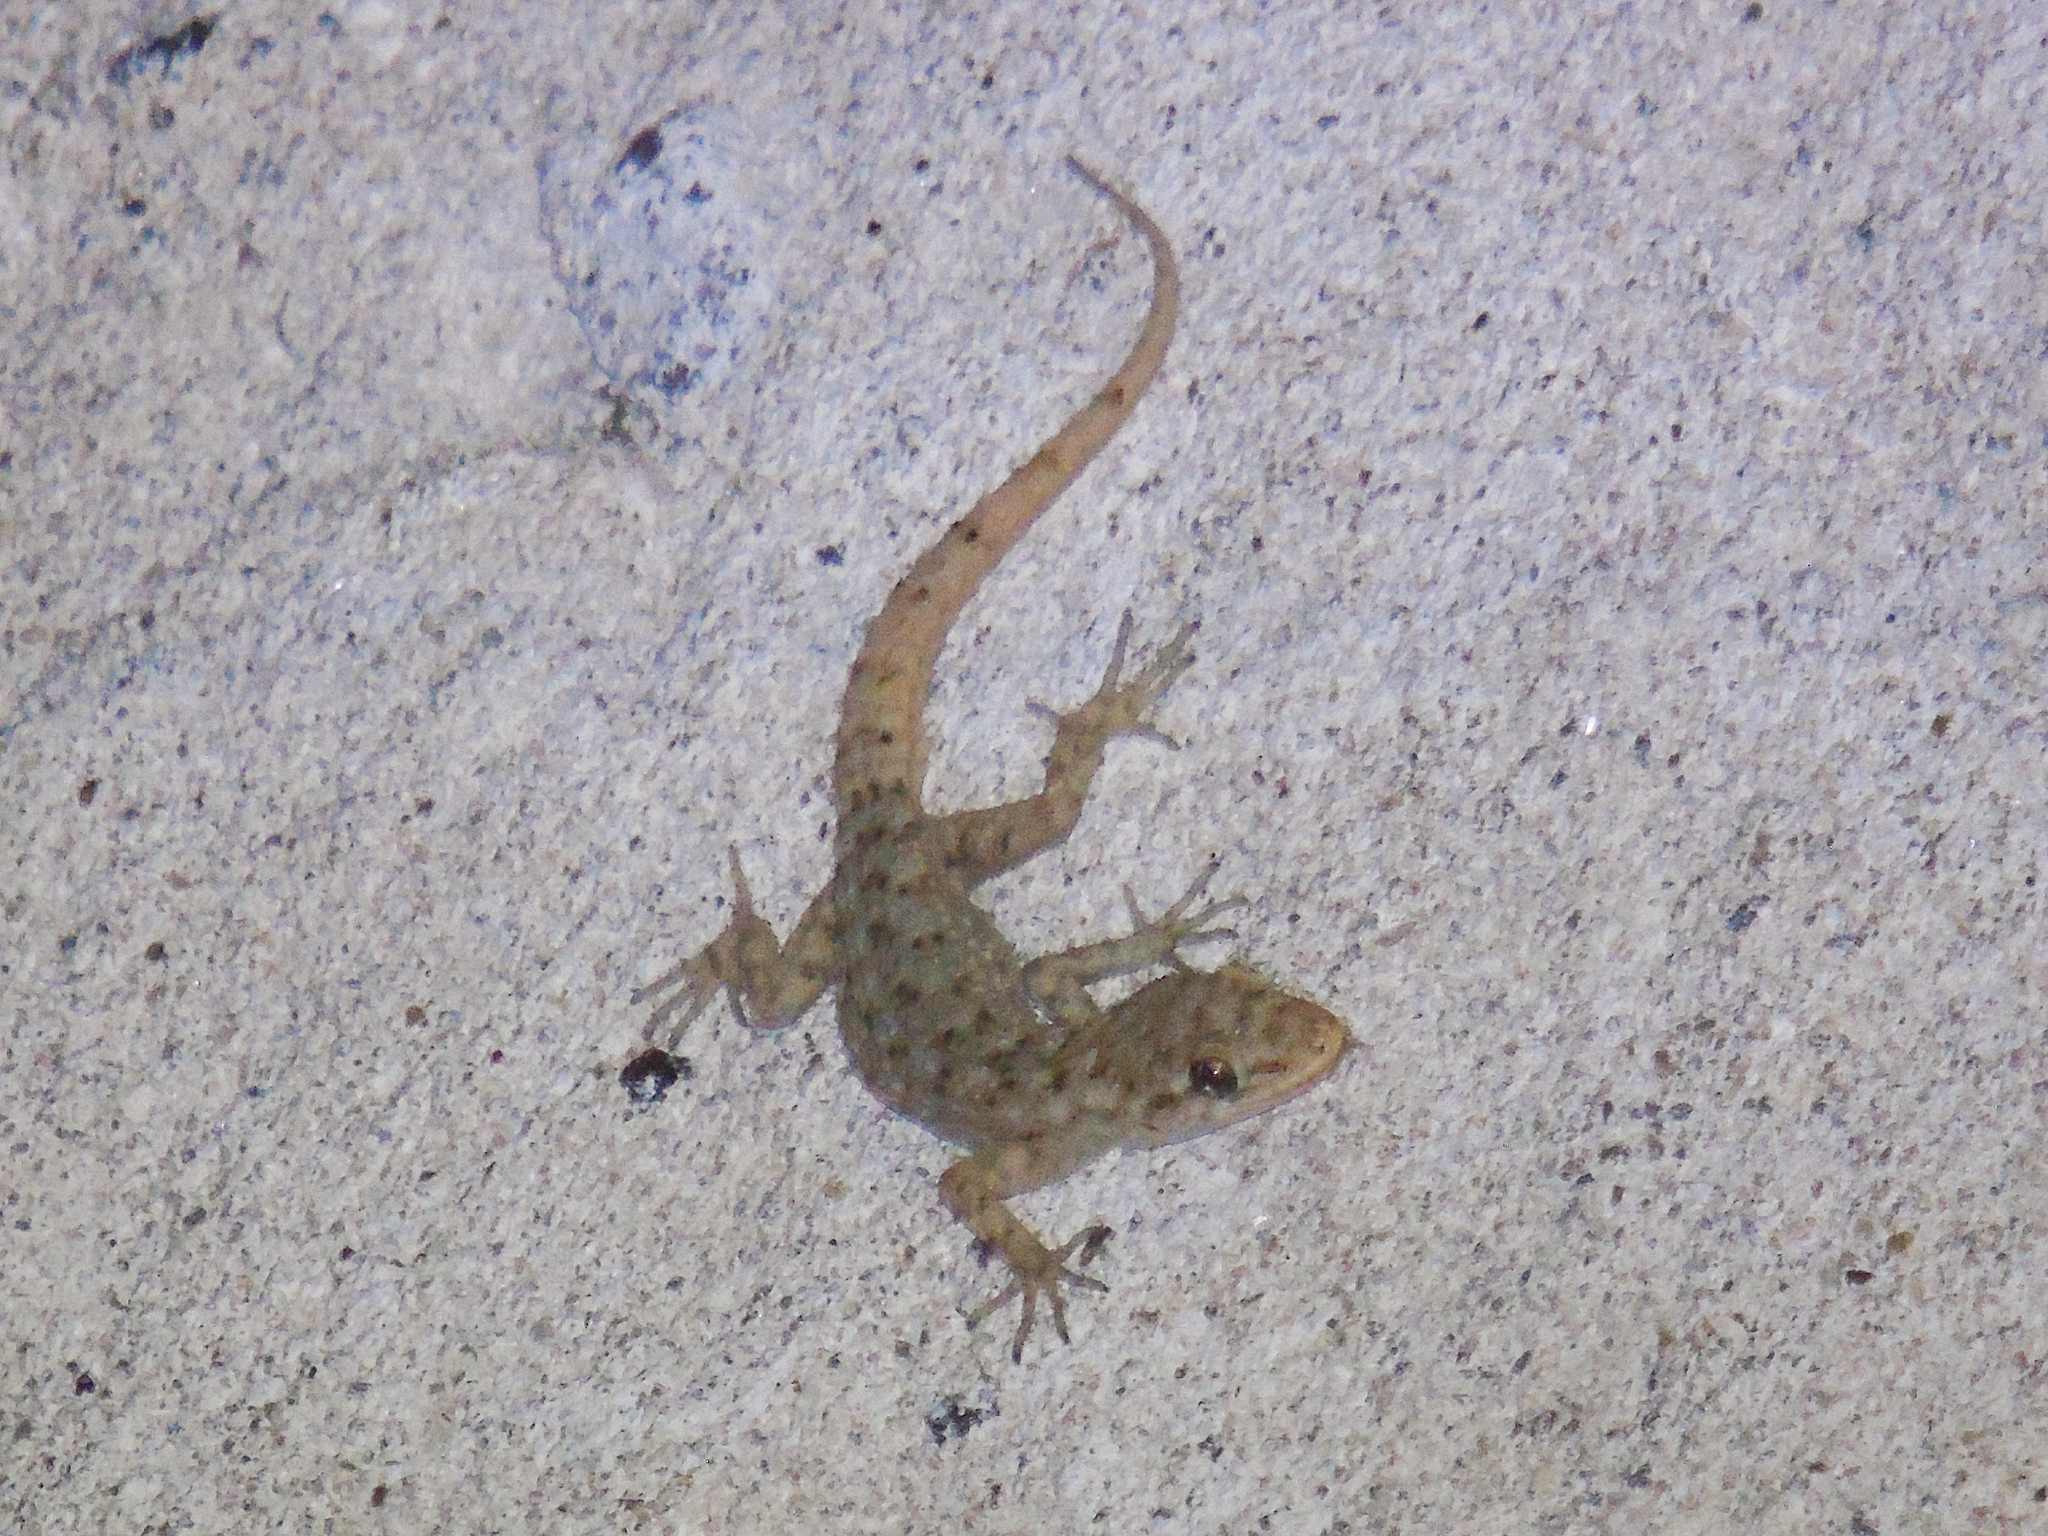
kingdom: Animalia
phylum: Chordata
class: Squamata
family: Gekkonidae
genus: Mediodactylus
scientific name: Mediodactylus kotschyi
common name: Kotschy's gecko
